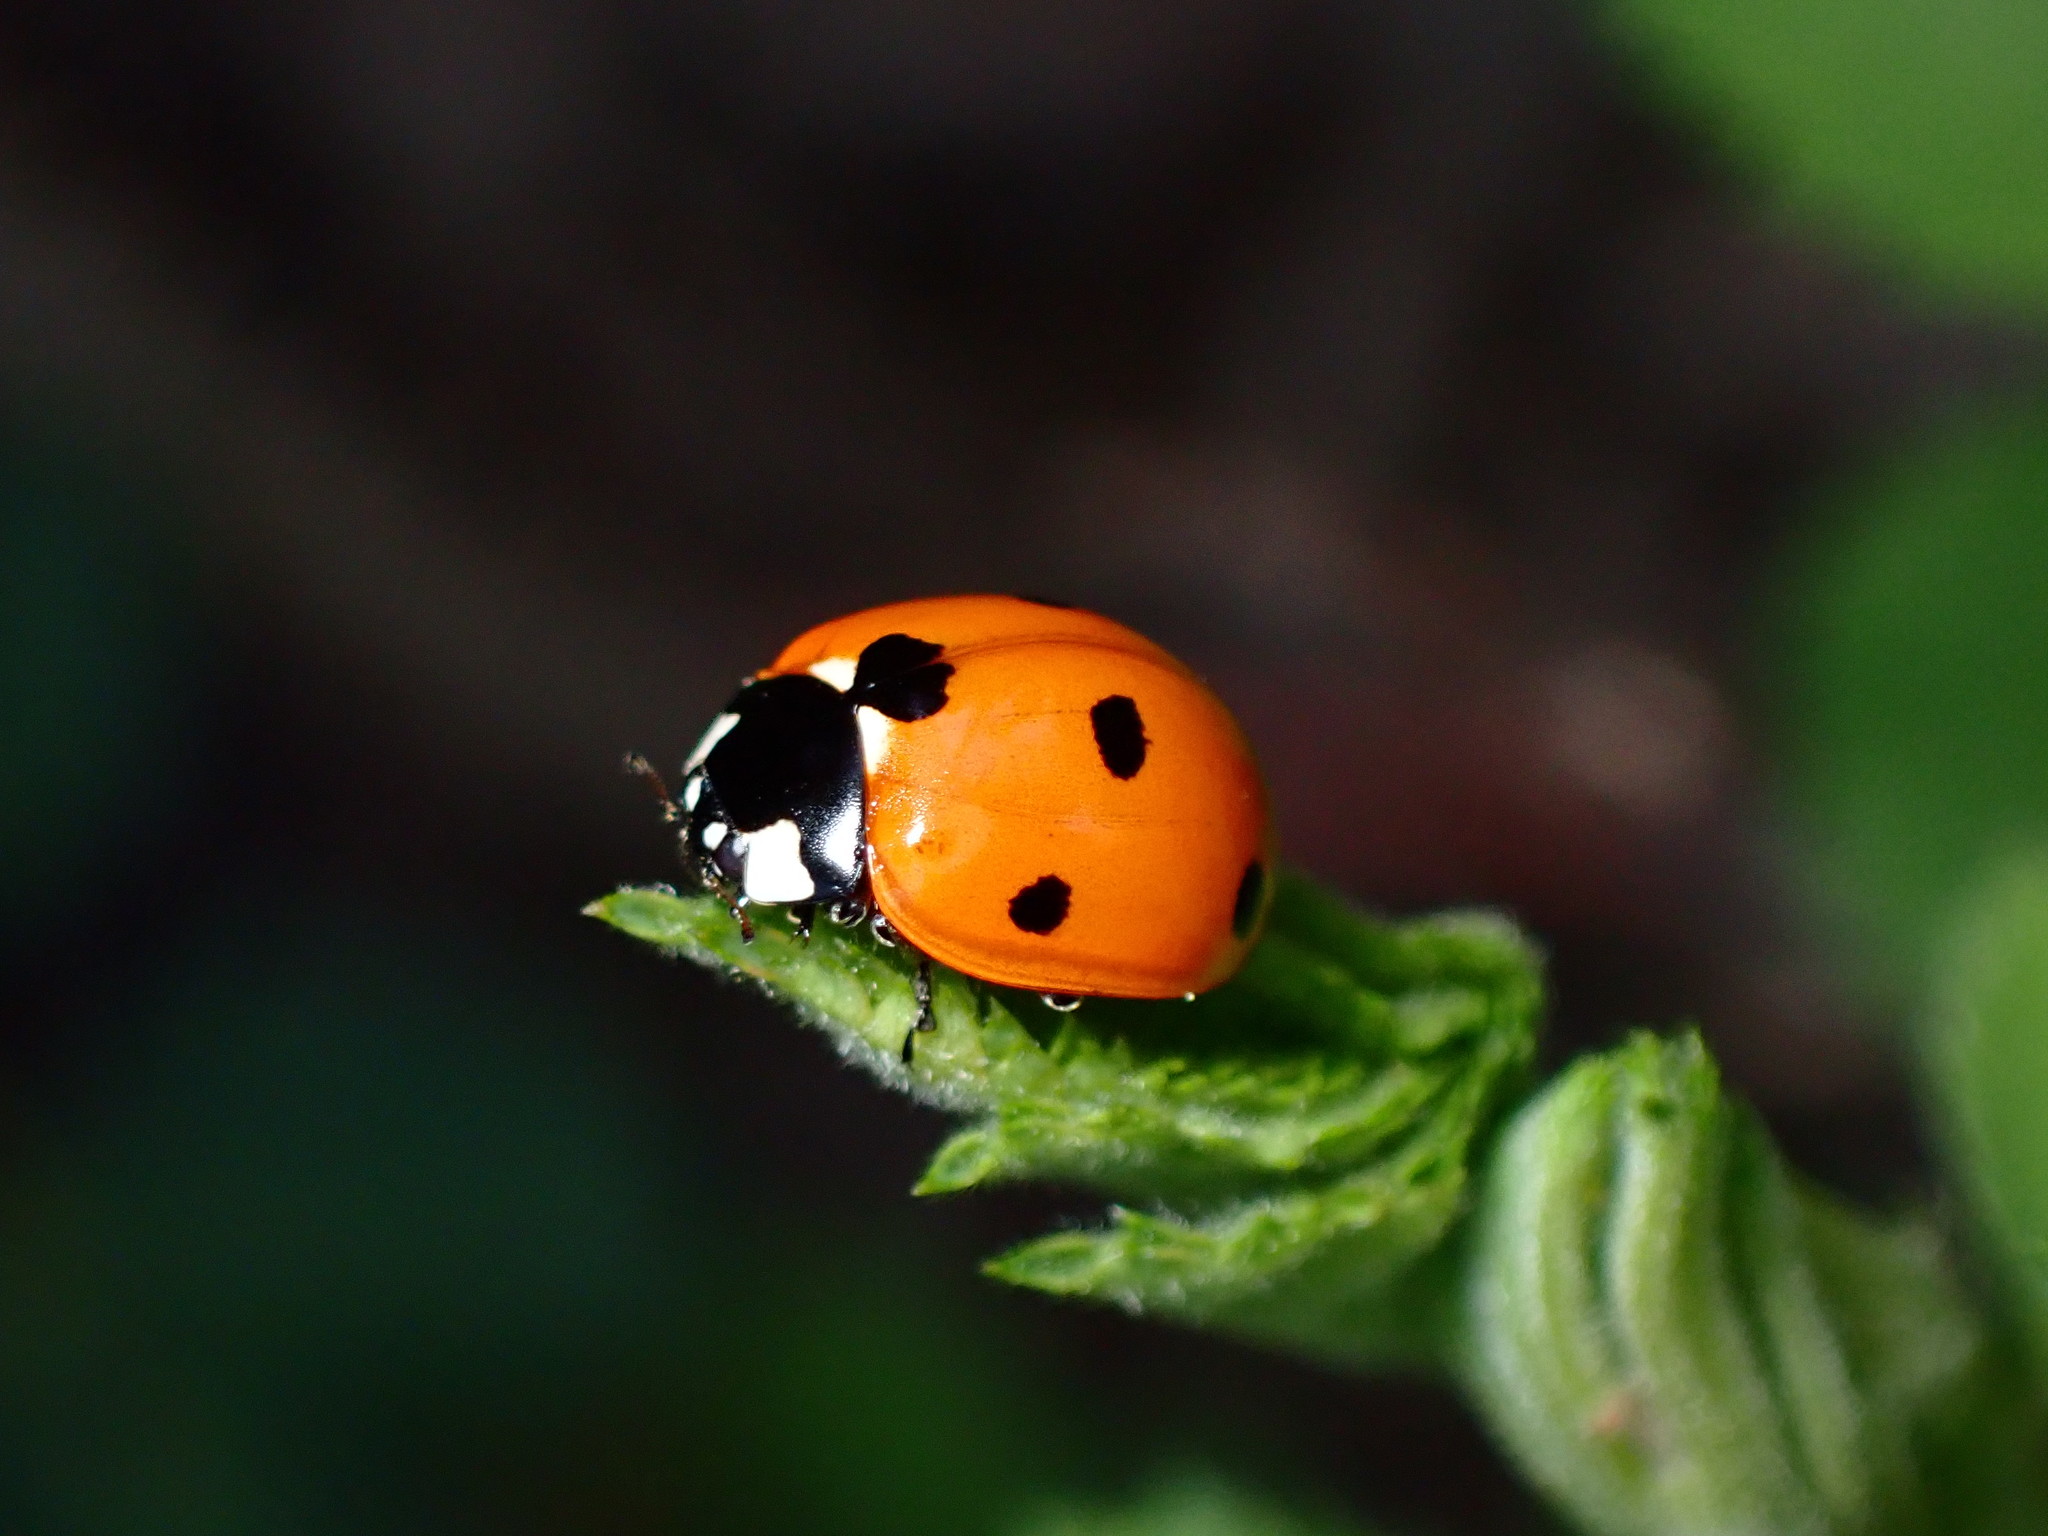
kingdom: Animalia
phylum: Arthropoda
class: Insecta
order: Coleoptera
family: Coccinellidae
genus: Coccinella
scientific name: Coccinella septempunctata
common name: Sevenspotted lady beetle
